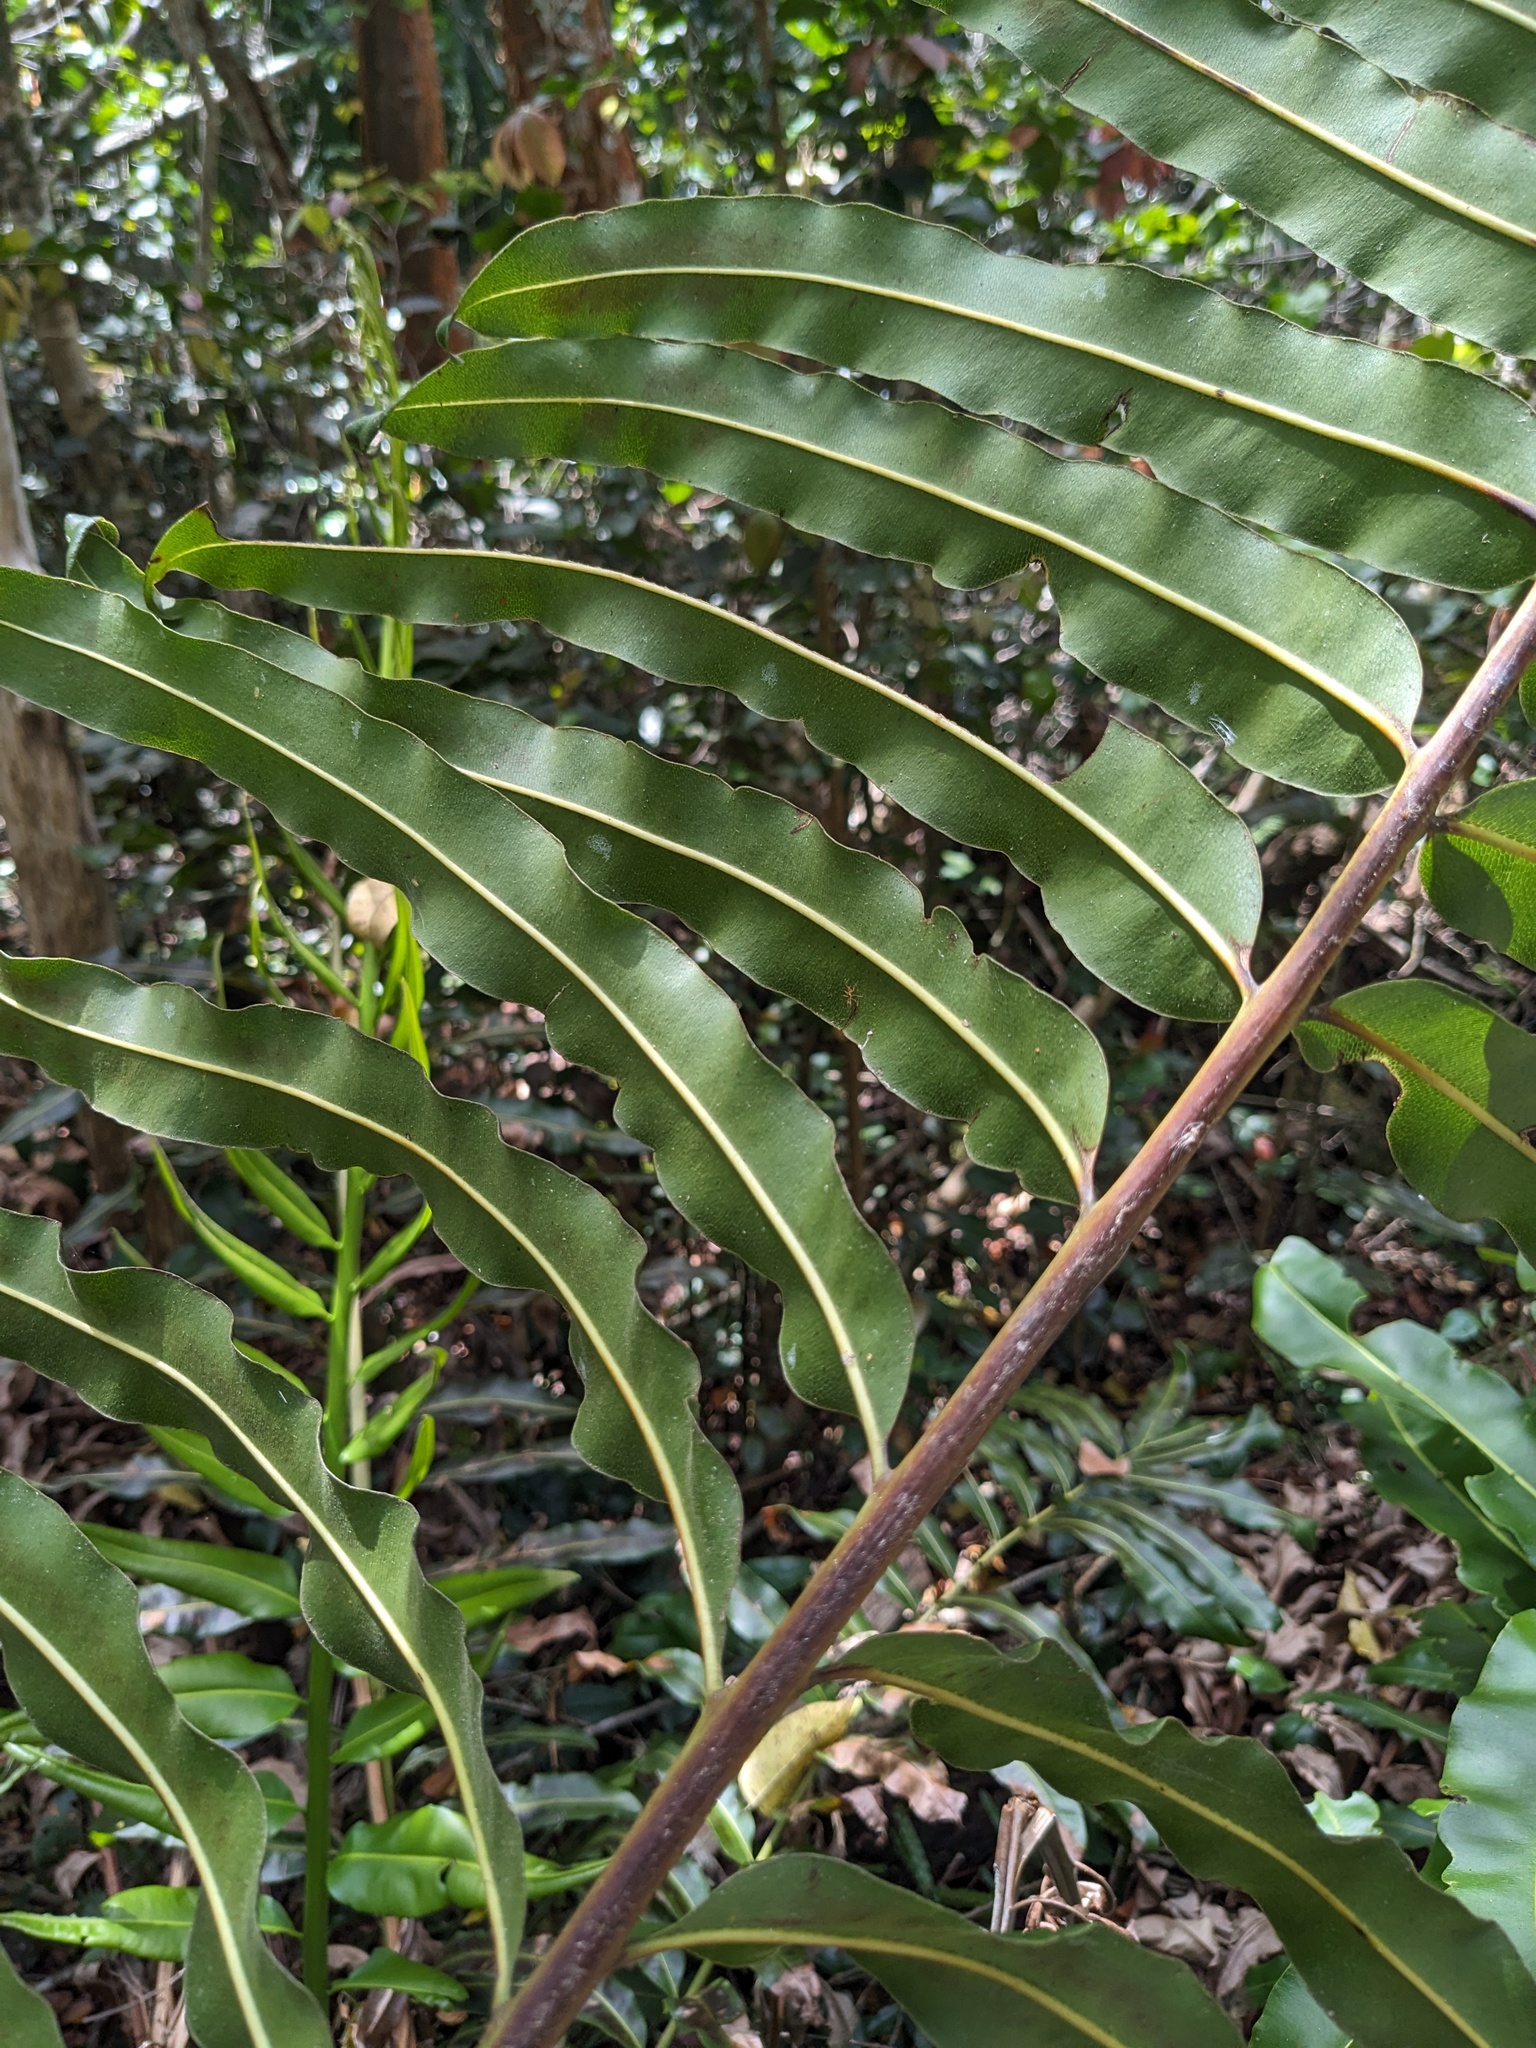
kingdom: Plantae
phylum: Tracheophyta
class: Polypodiopsida
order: Polypodiales
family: Pteridaceae
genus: Acrostichum
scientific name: Acrostichum danaeifolium
